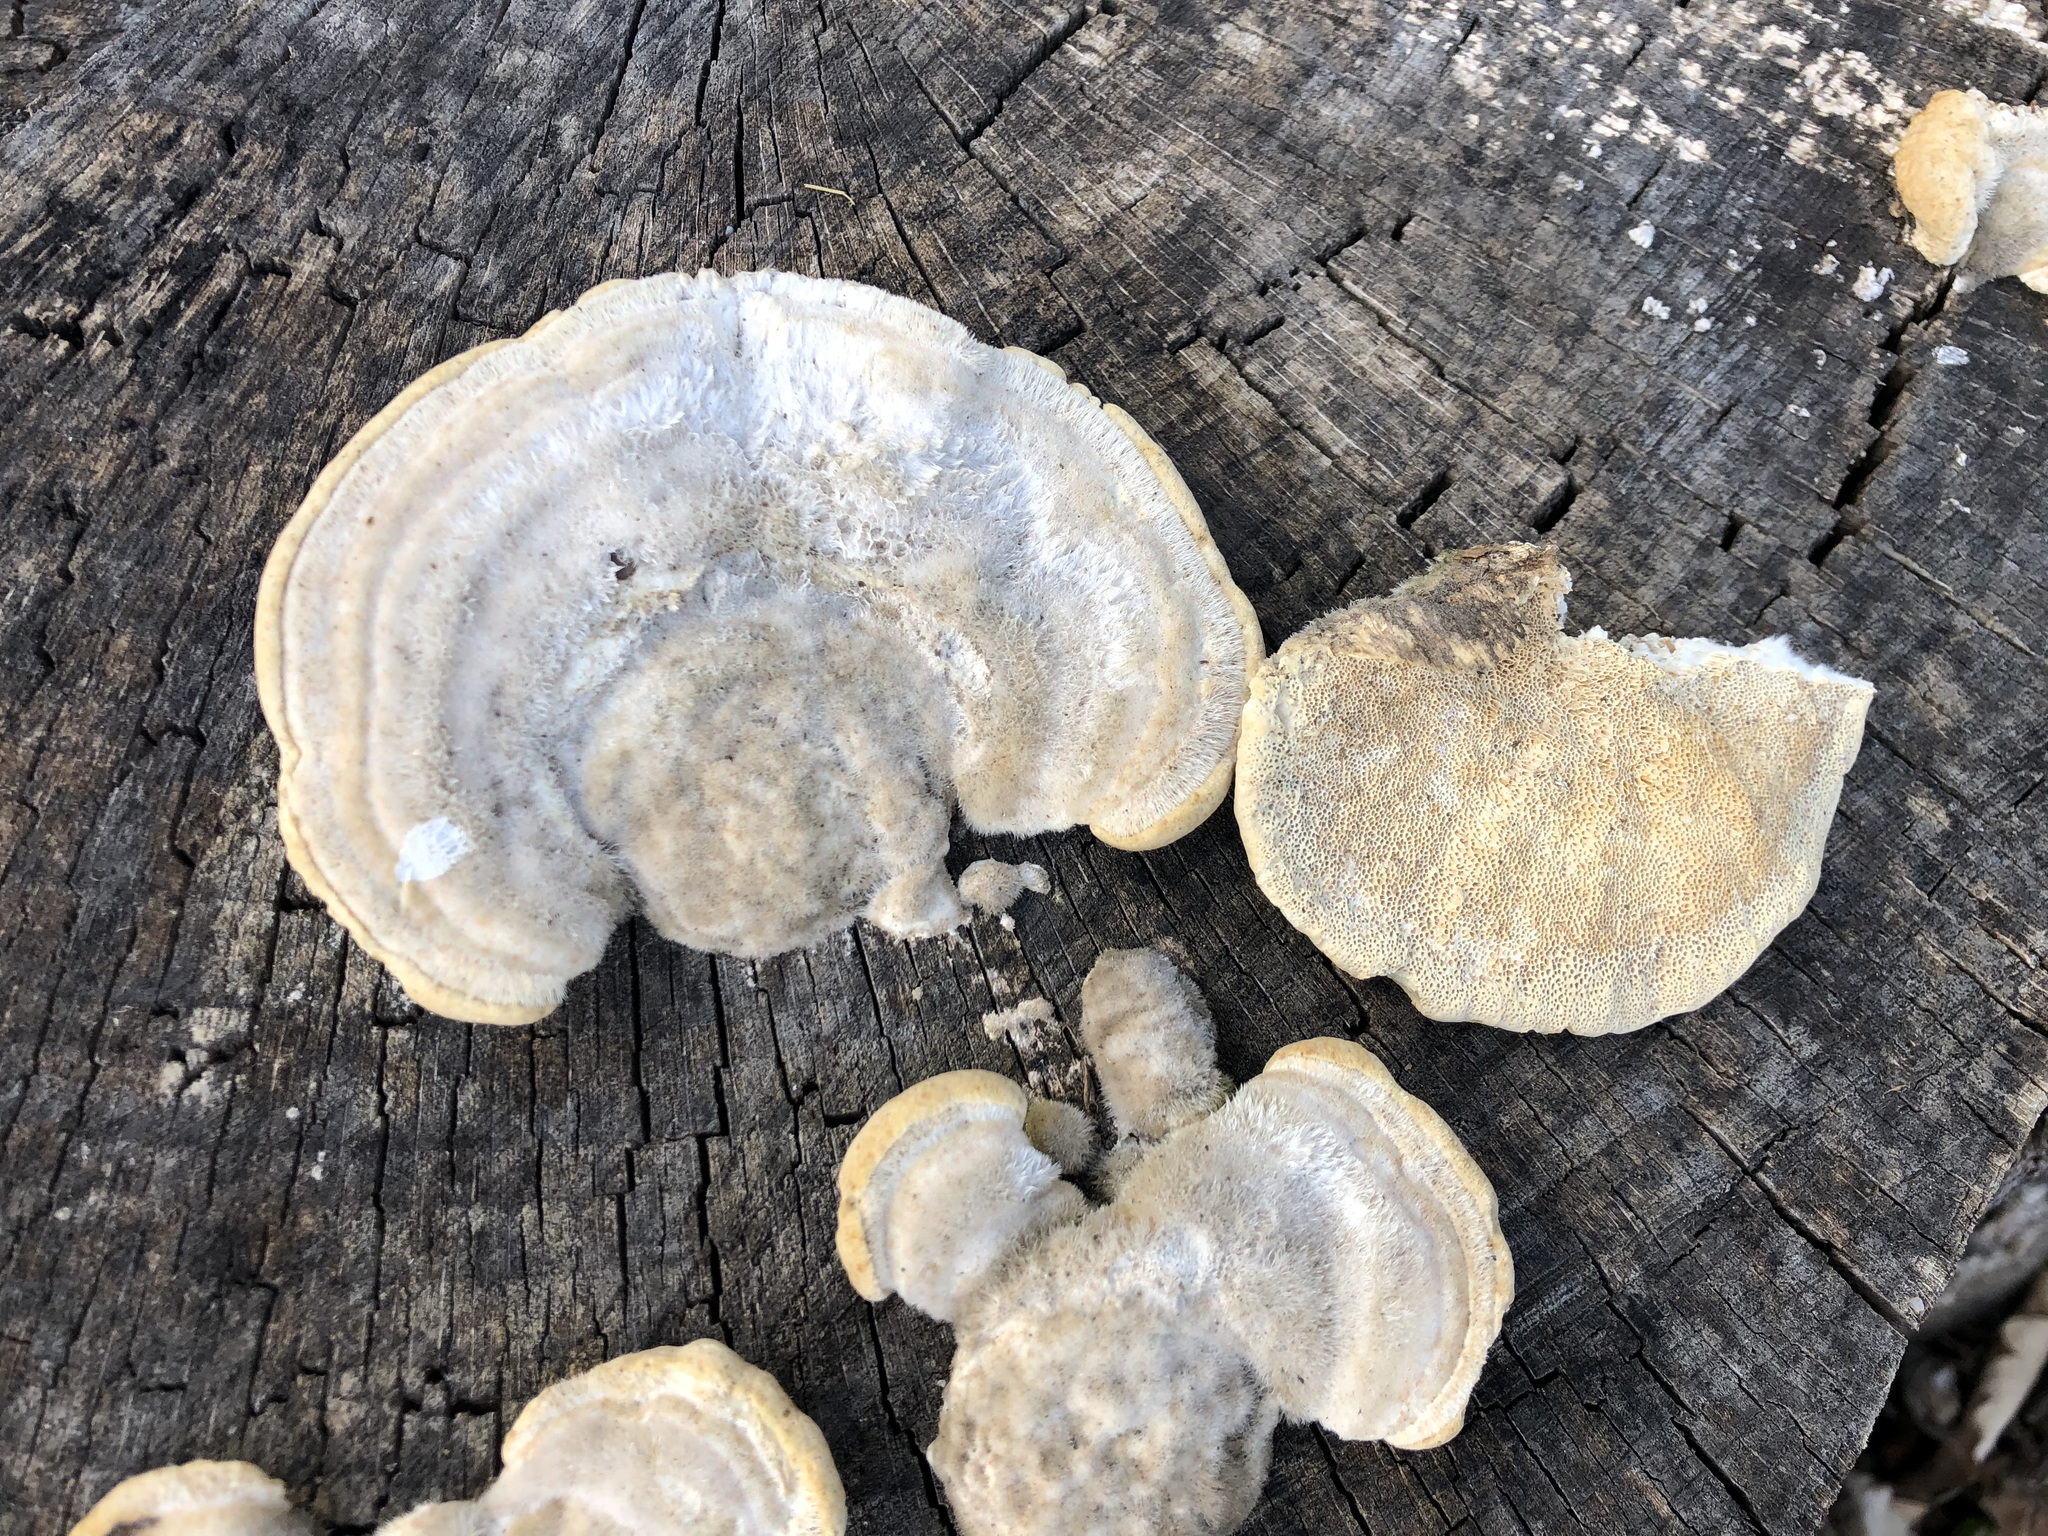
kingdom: Fungi
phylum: Basidiomycota
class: Agaricomycetes
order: Polyporales
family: Polyporaceae
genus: Trametes
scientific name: Trametes hirsuta
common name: Hairy bracket
